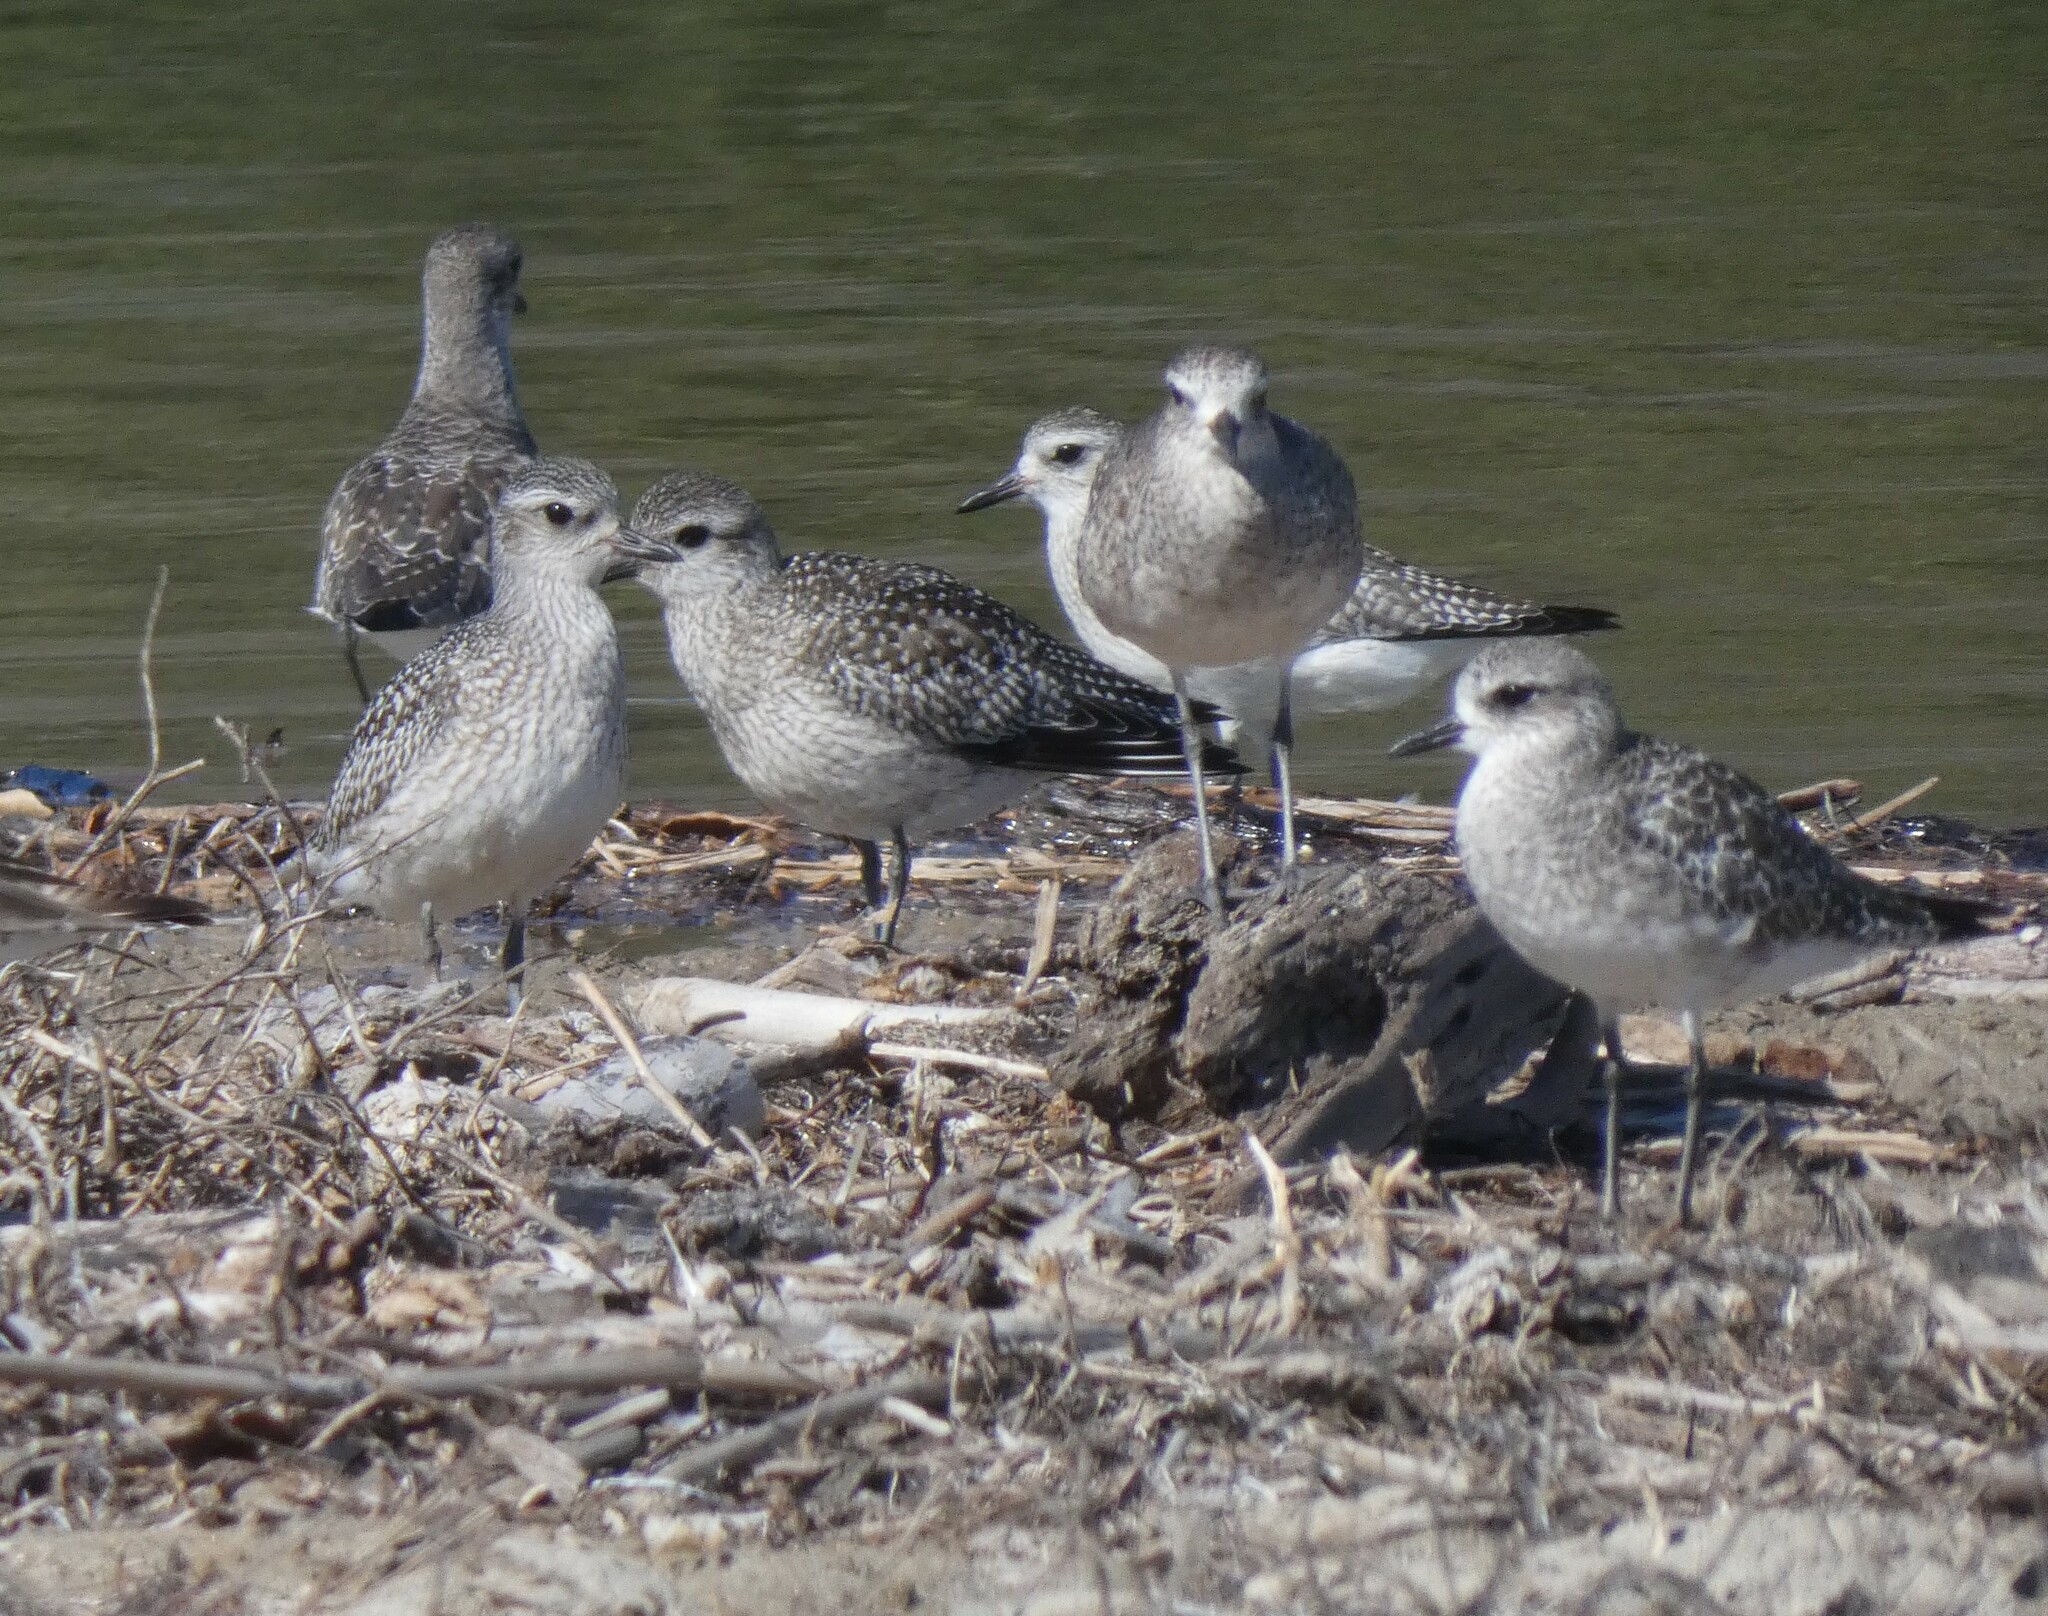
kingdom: Animalia
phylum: Chordata
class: Aves
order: Charadriiformes
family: Charadriidae
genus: Pluvialis
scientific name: Pluvialis squatarola
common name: Grey plover
